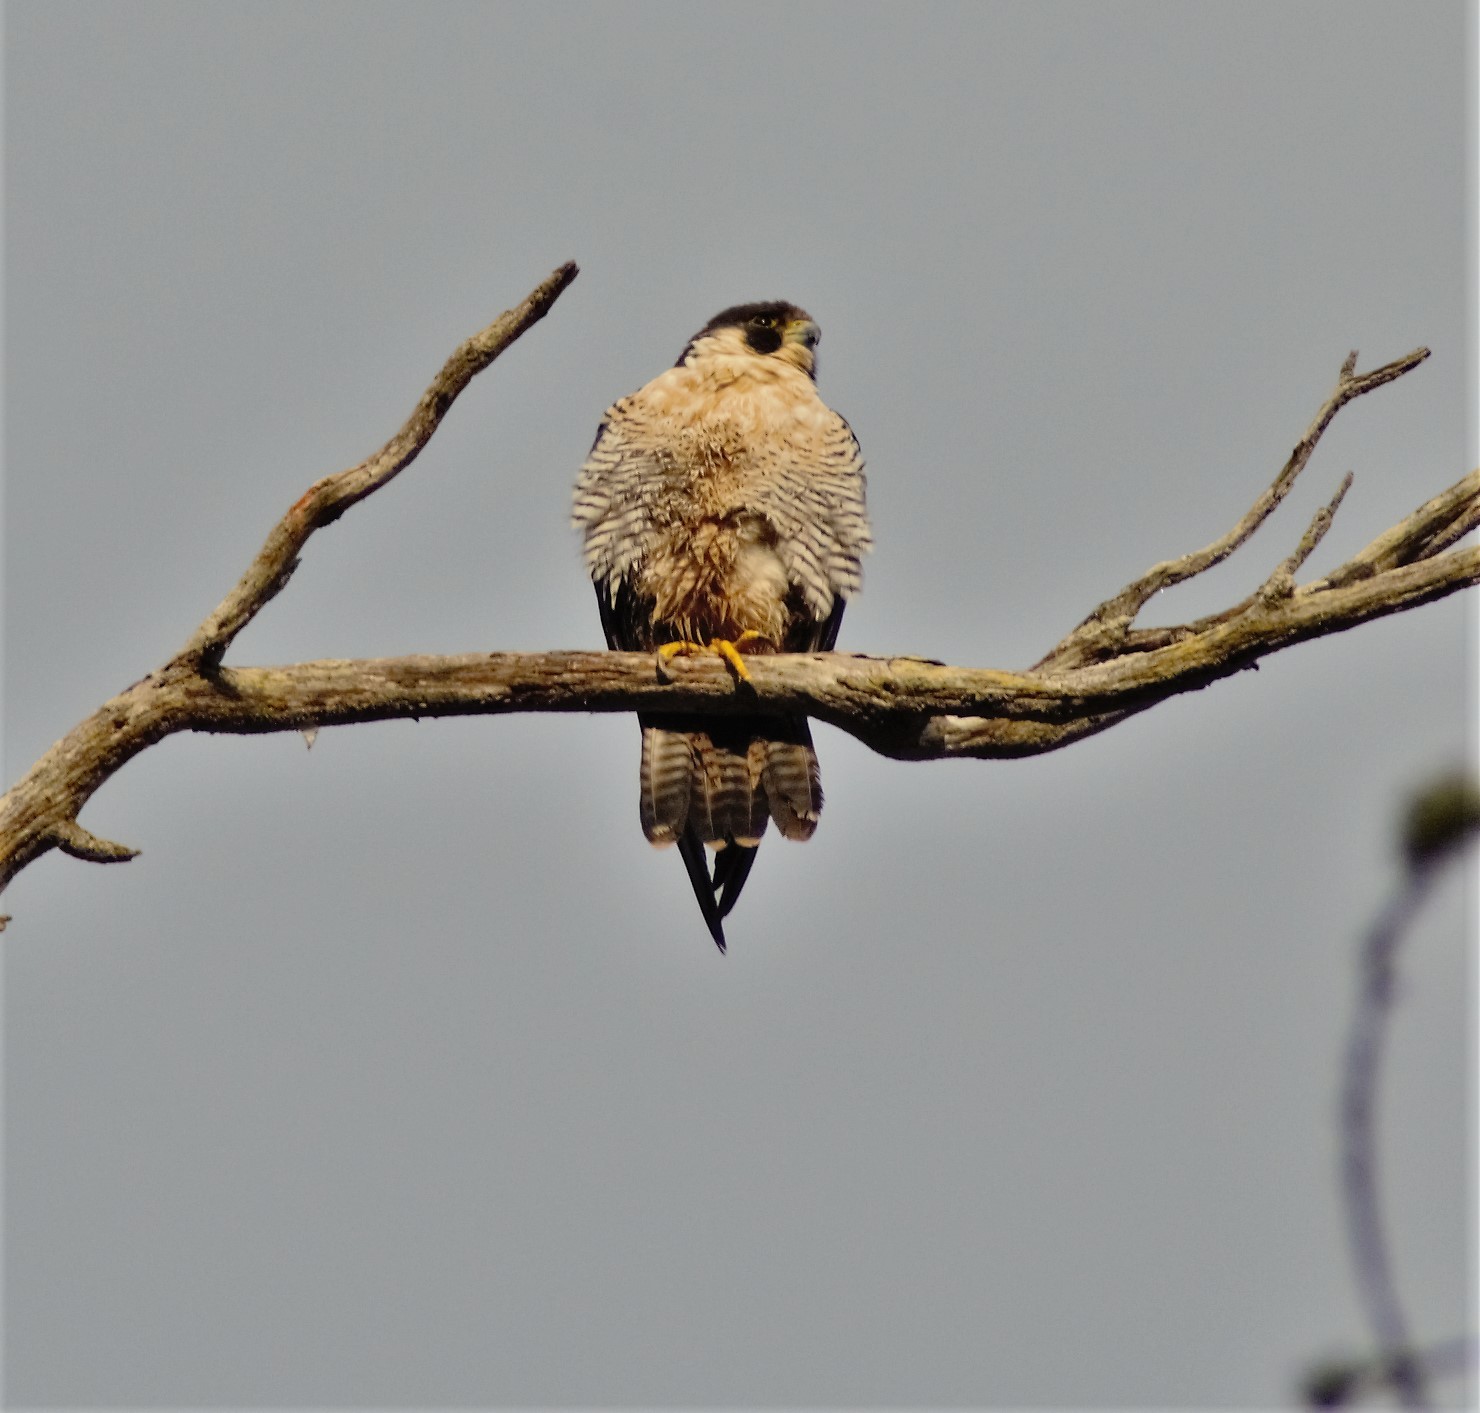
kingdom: Animalia
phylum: Chordata
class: Aves
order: Falconiformes
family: Falconidae
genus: Falco
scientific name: Falco peregrinus
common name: Peregrine falcon
